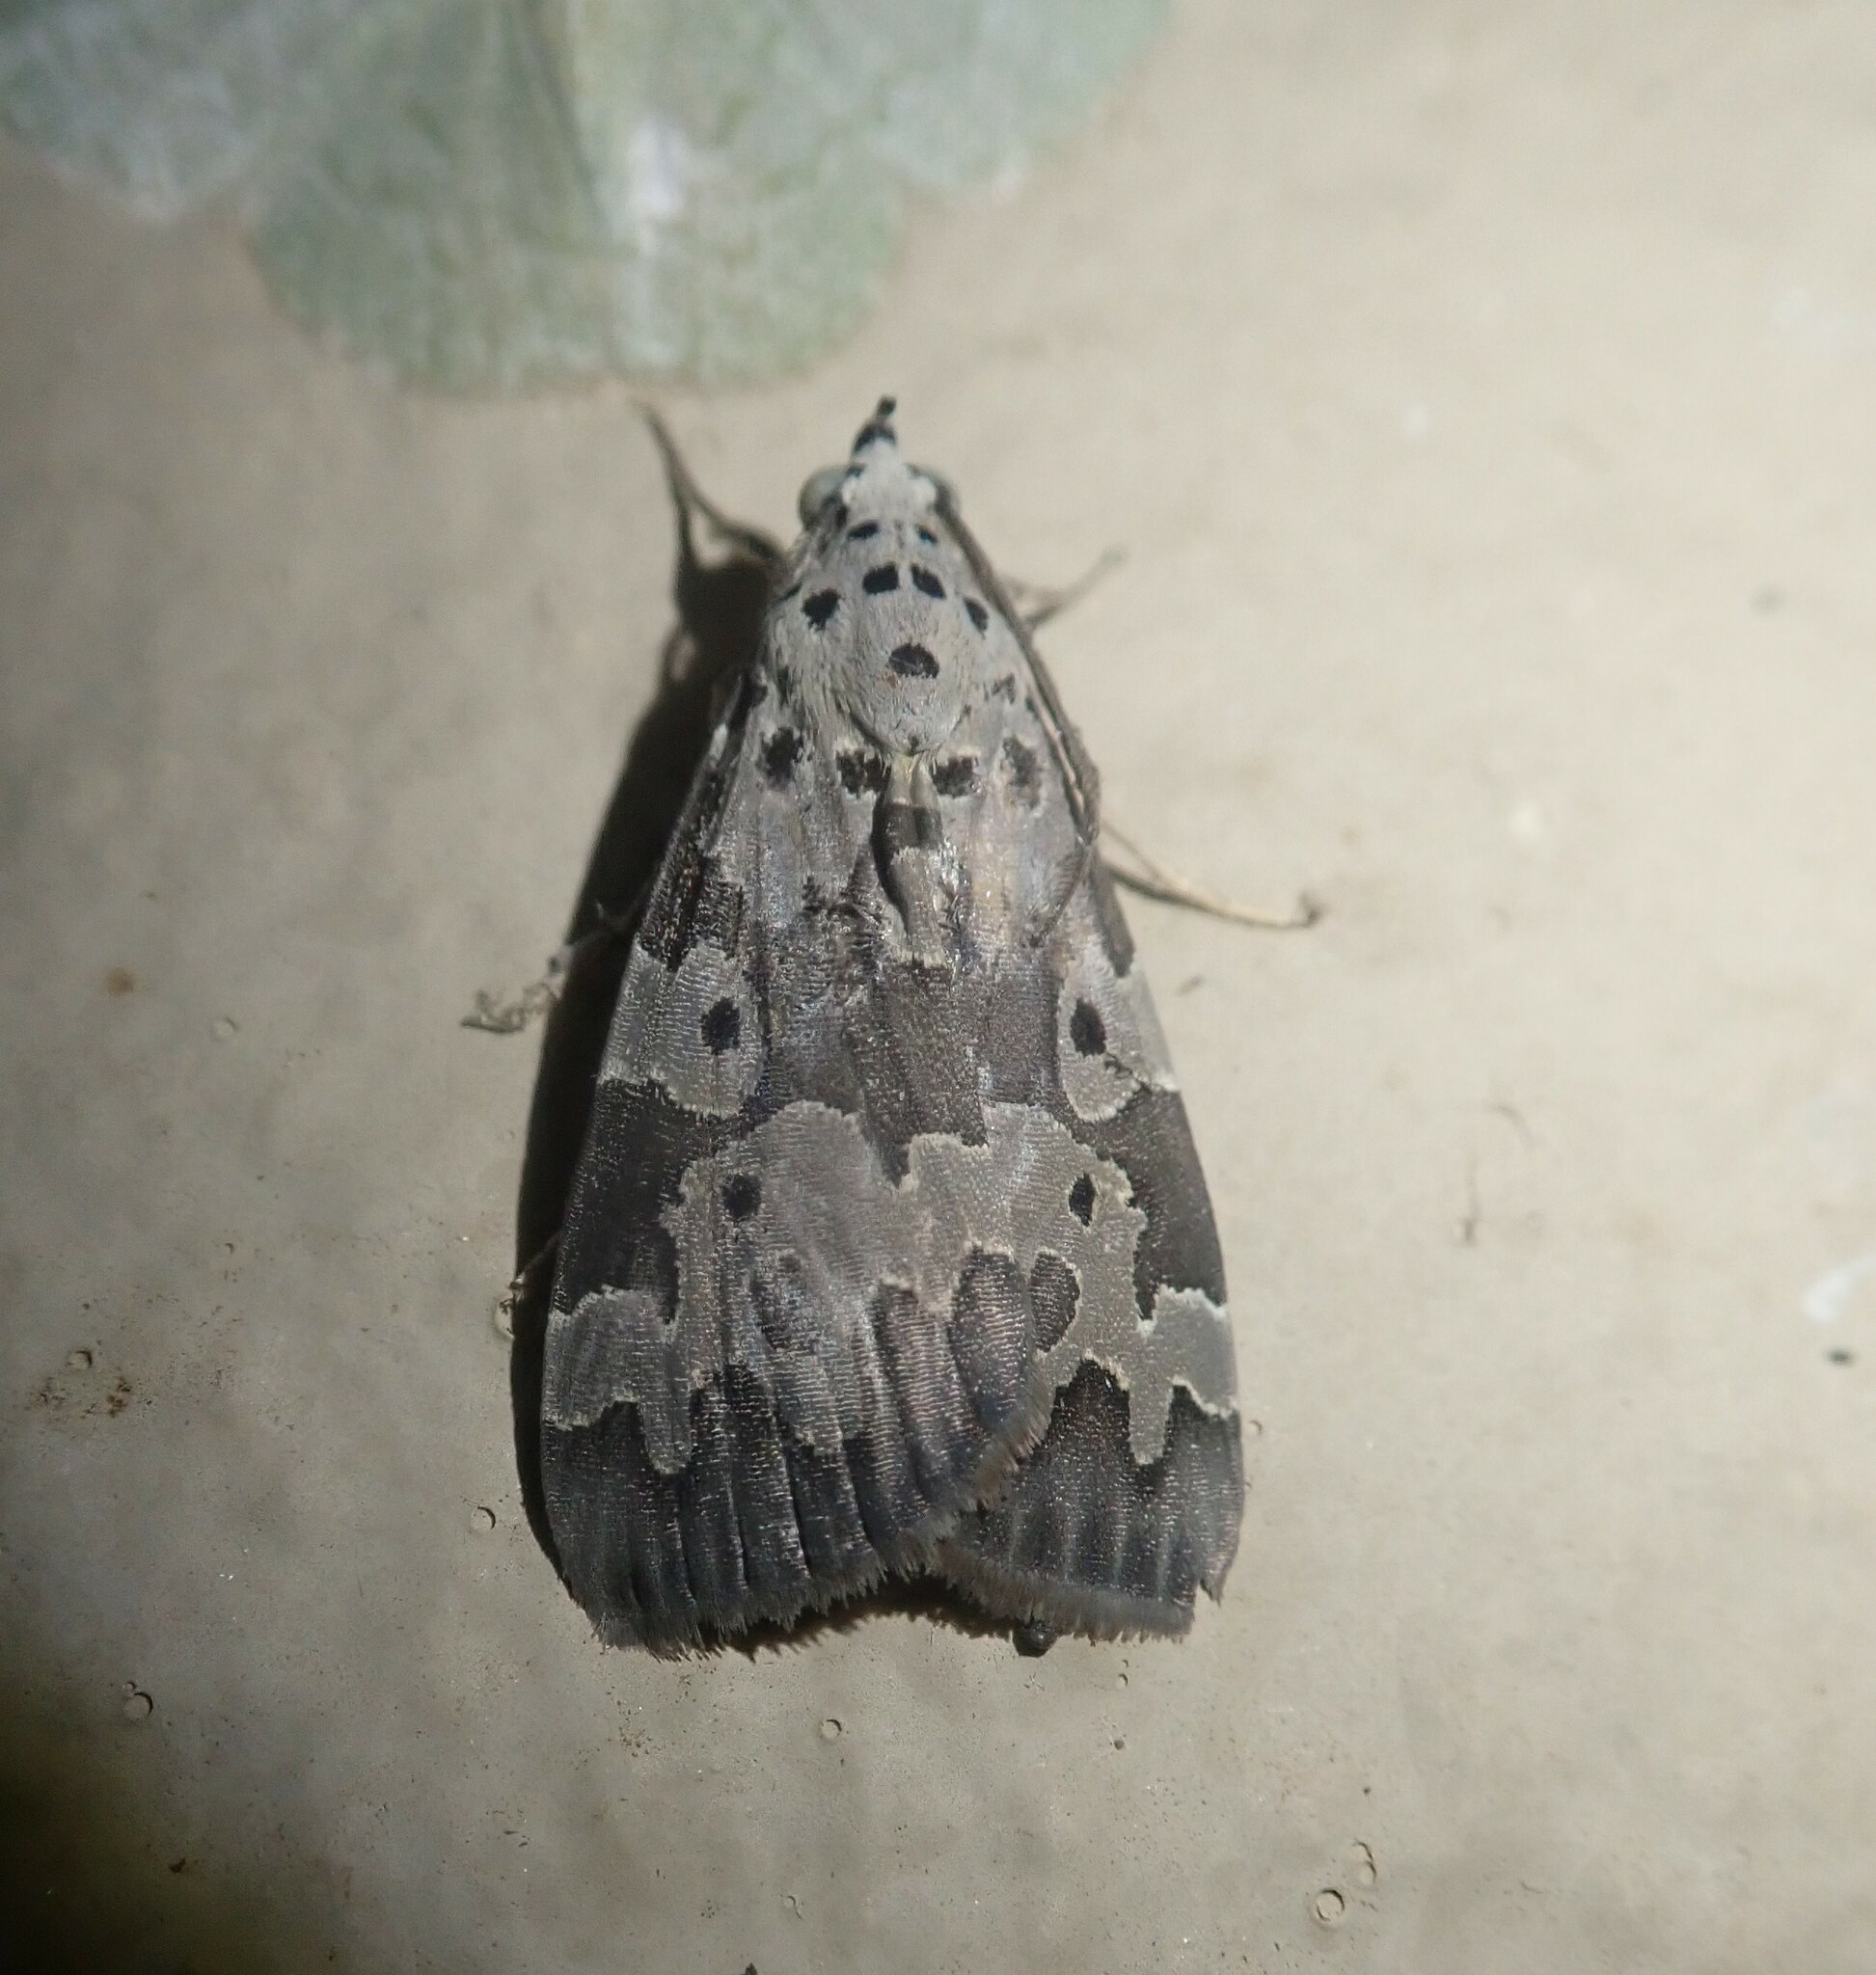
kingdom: Animalia
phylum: Arthropoda
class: Insecta
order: Lepidoptera
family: Erebidae
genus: Digama
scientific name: Digama Sommeria culta
